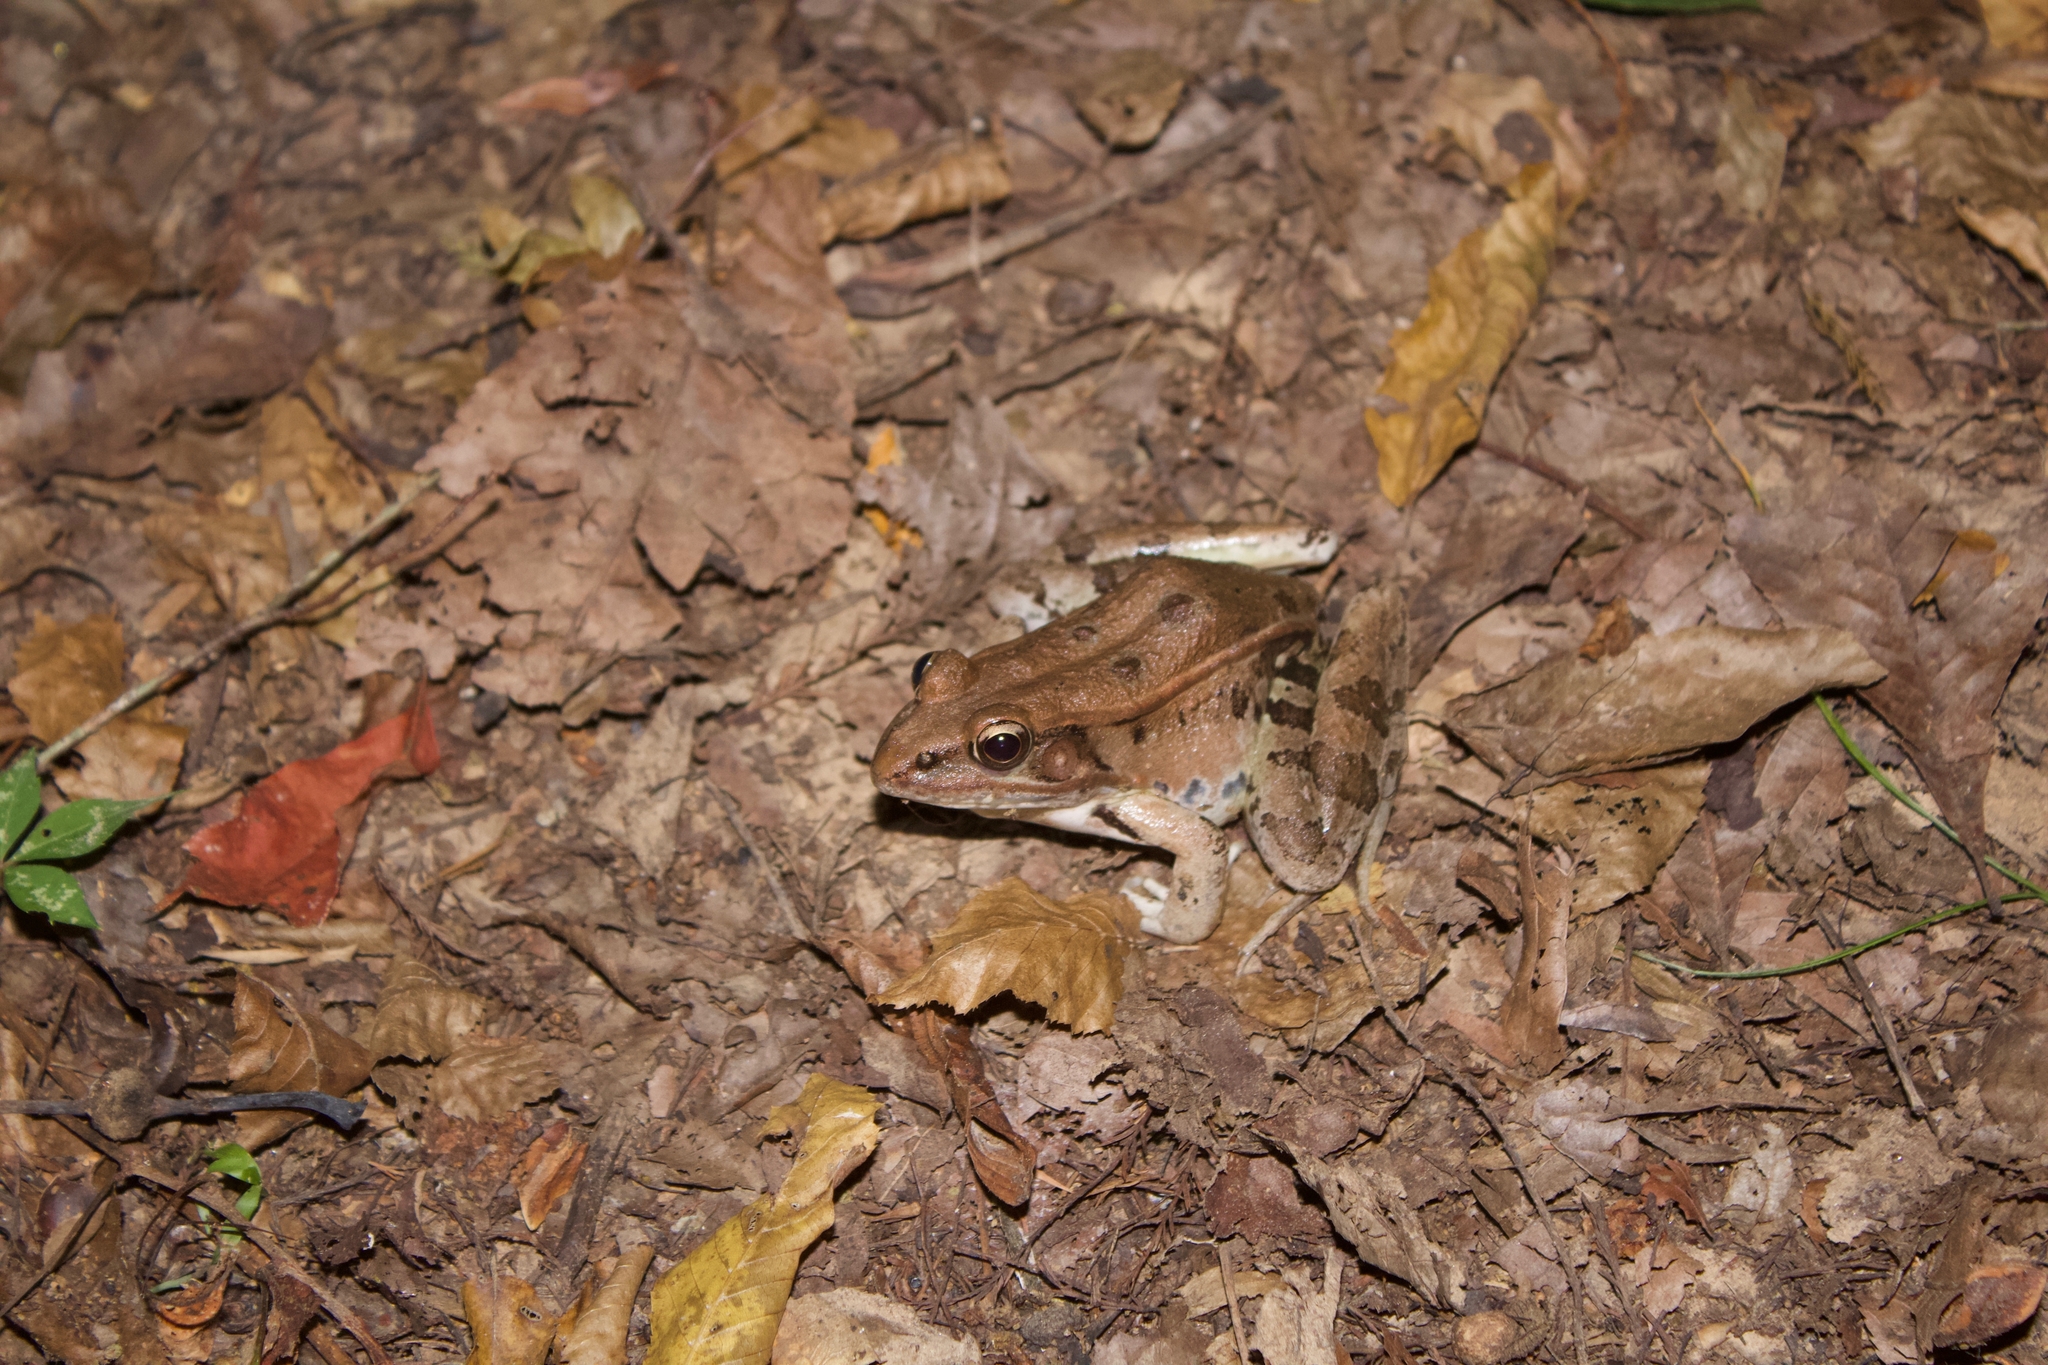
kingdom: Animalia
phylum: Chordata
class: Amphibia
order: Anura
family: Ranidae
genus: Lithobates
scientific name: Lithobates sphenocephalus
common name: Southern leopard frog
